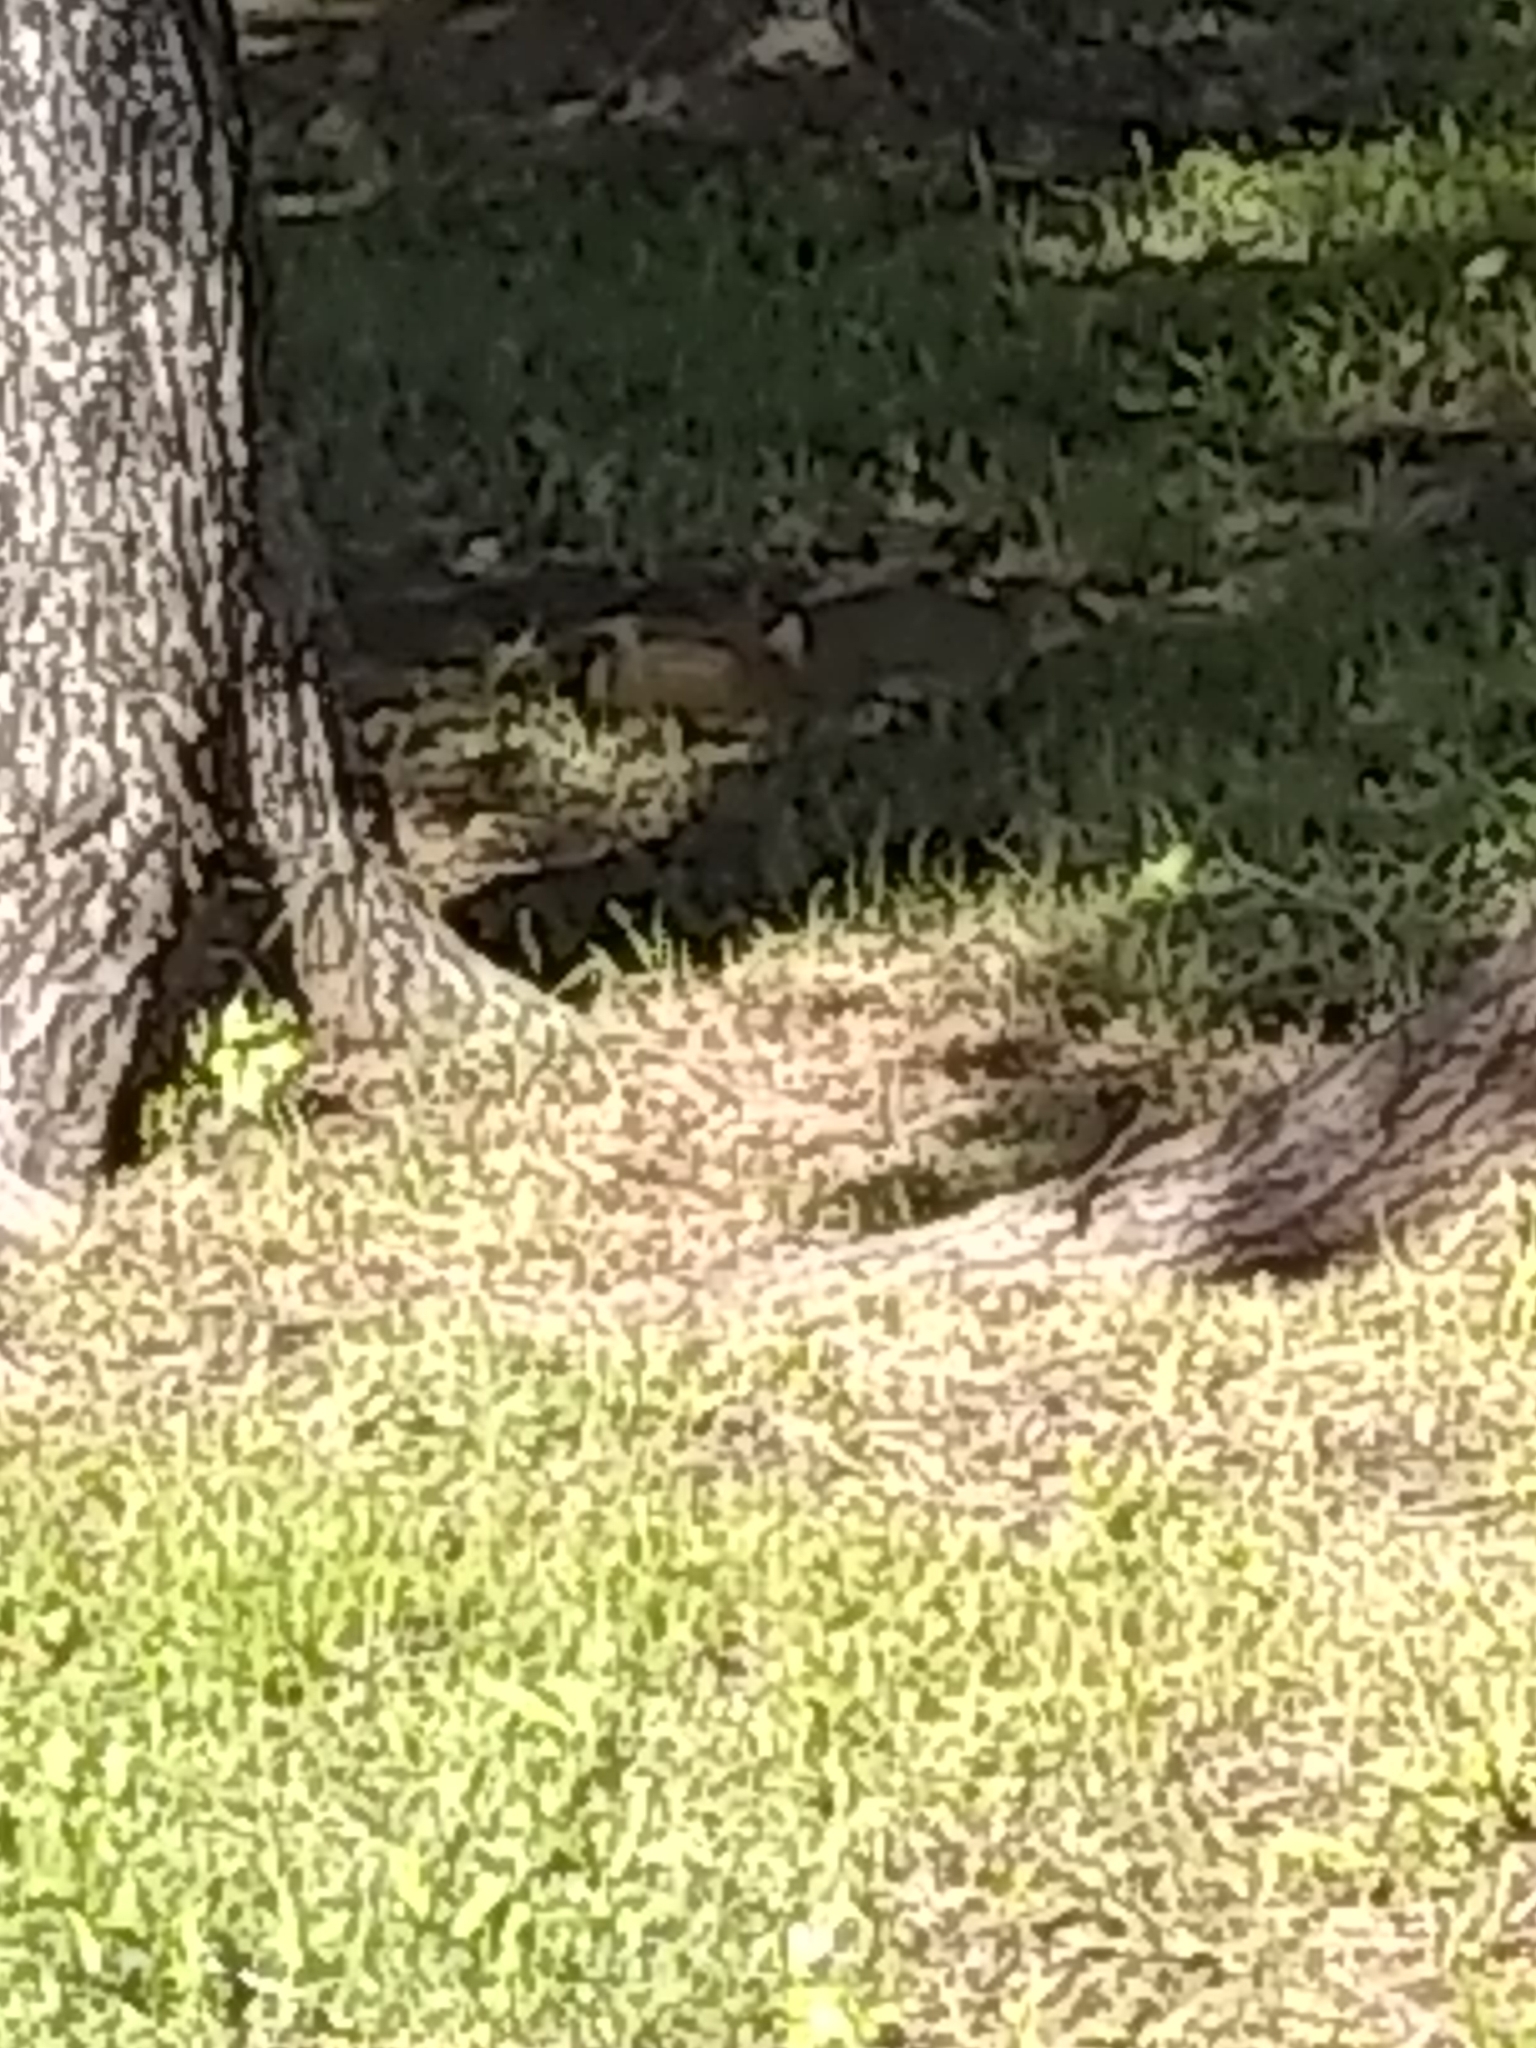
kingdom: Animalia
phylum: Chordata
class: Mammalia
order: Rodentia
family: Sciuridae
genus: Sciurus
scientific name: Sciurus niger
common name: Fox squirrel
